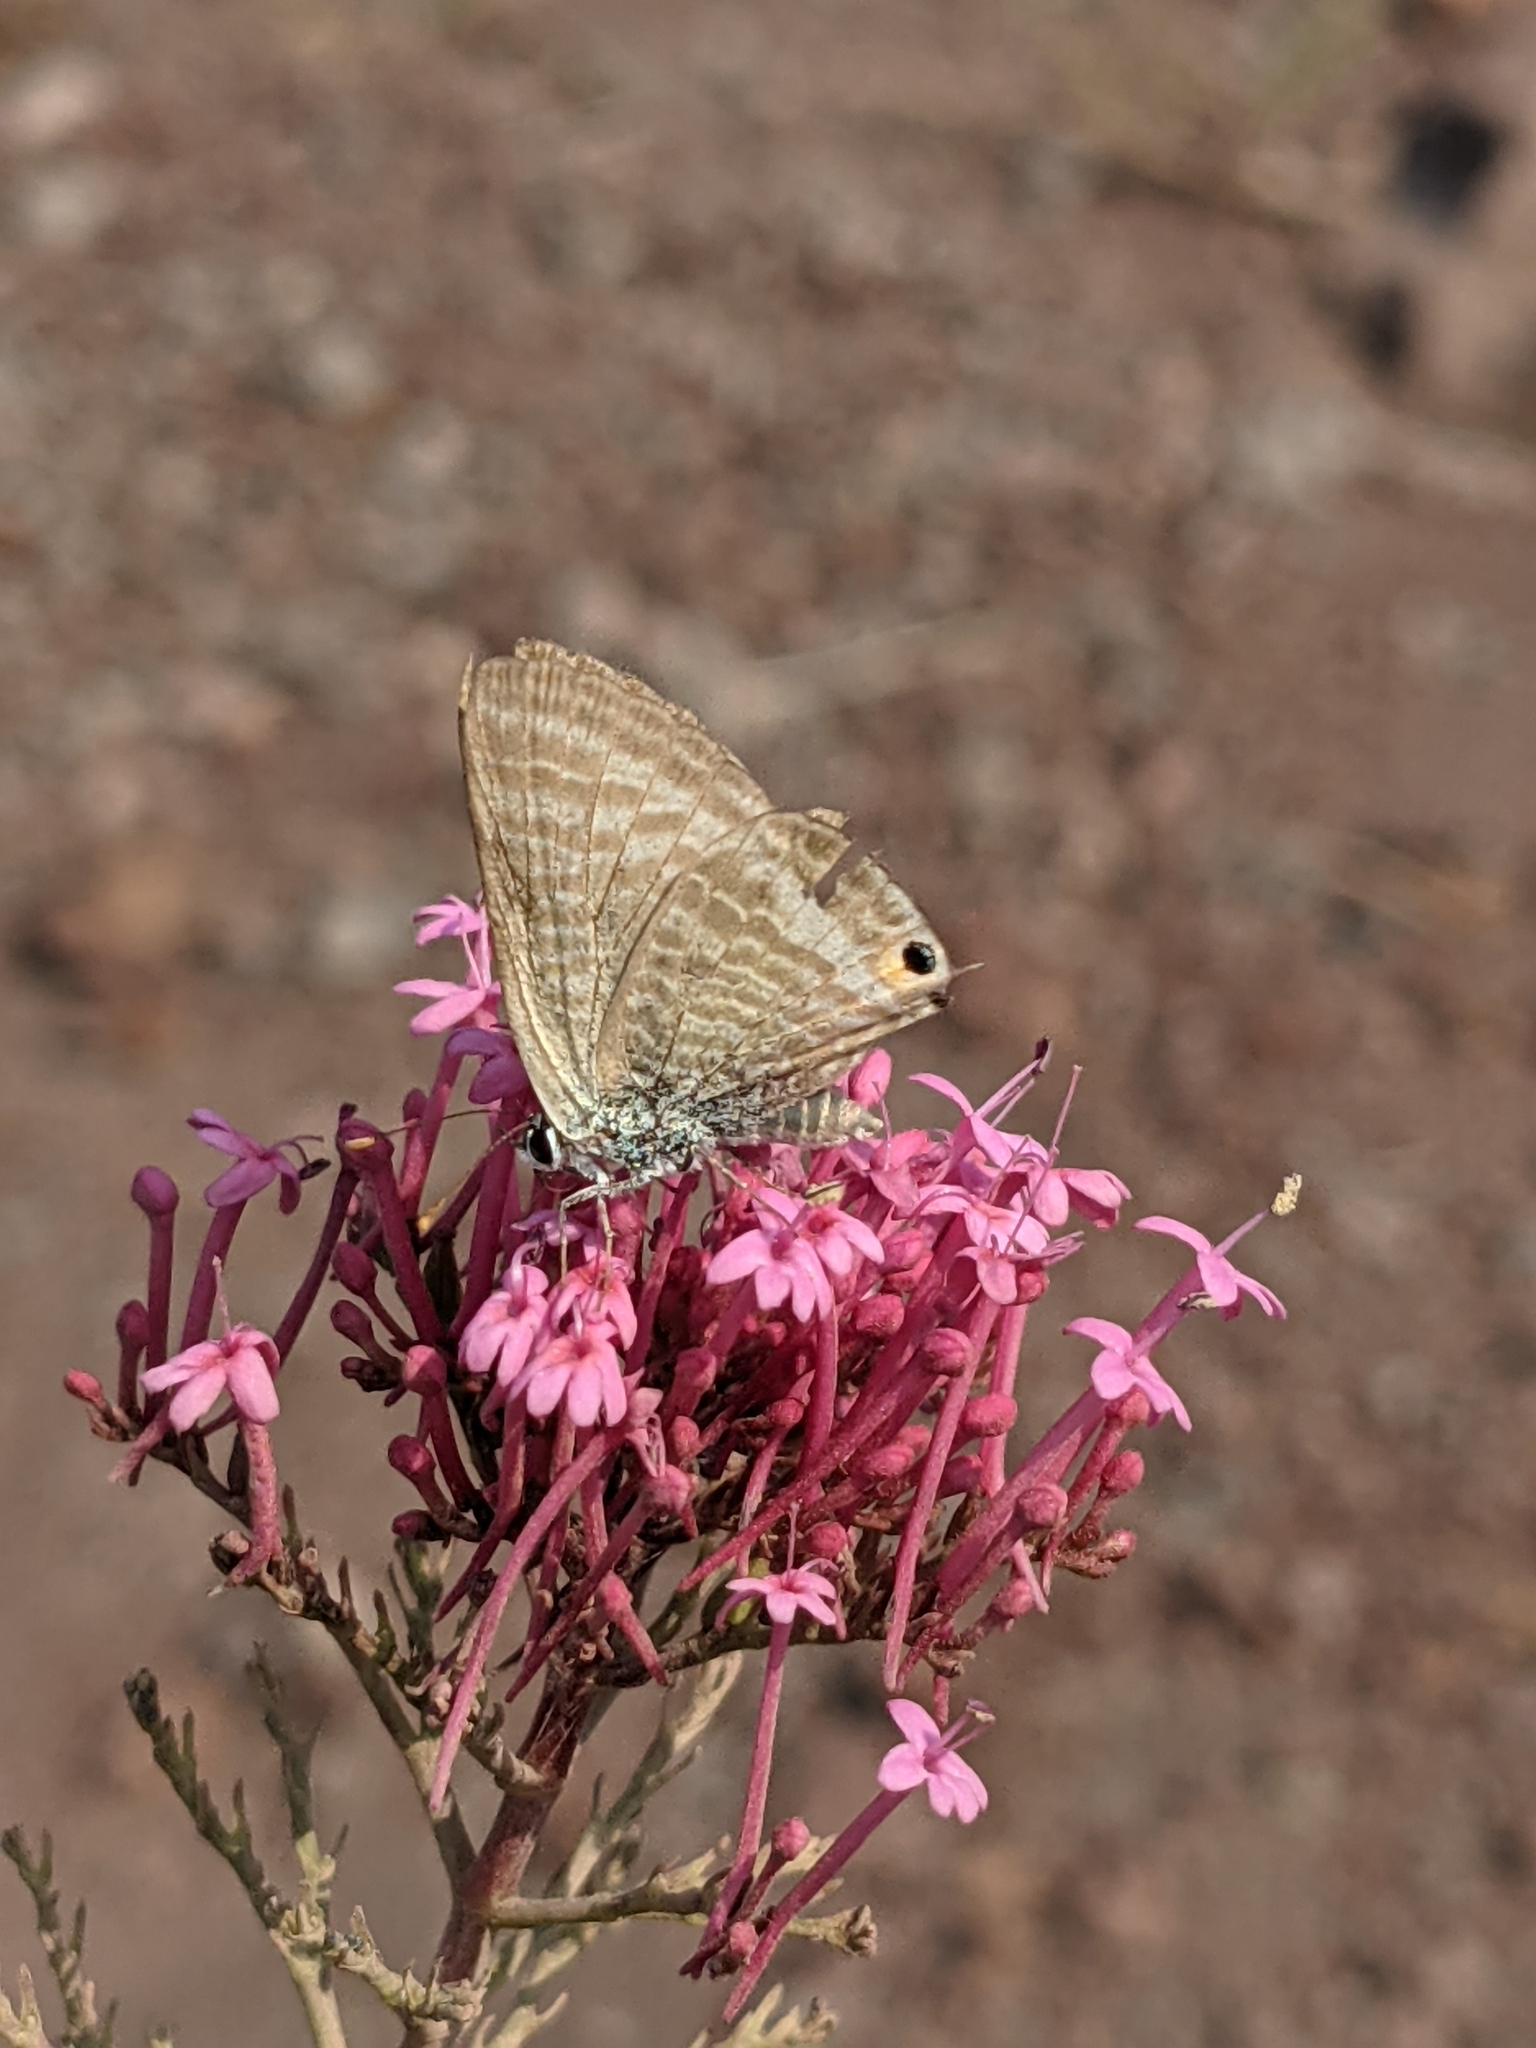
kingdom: Animalia
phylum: Arthropoda
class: Insecta
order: Lepidoptera
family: Lycaenidae
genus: Lampides
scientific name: Lampides boeticus
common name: Long-tailed blue
